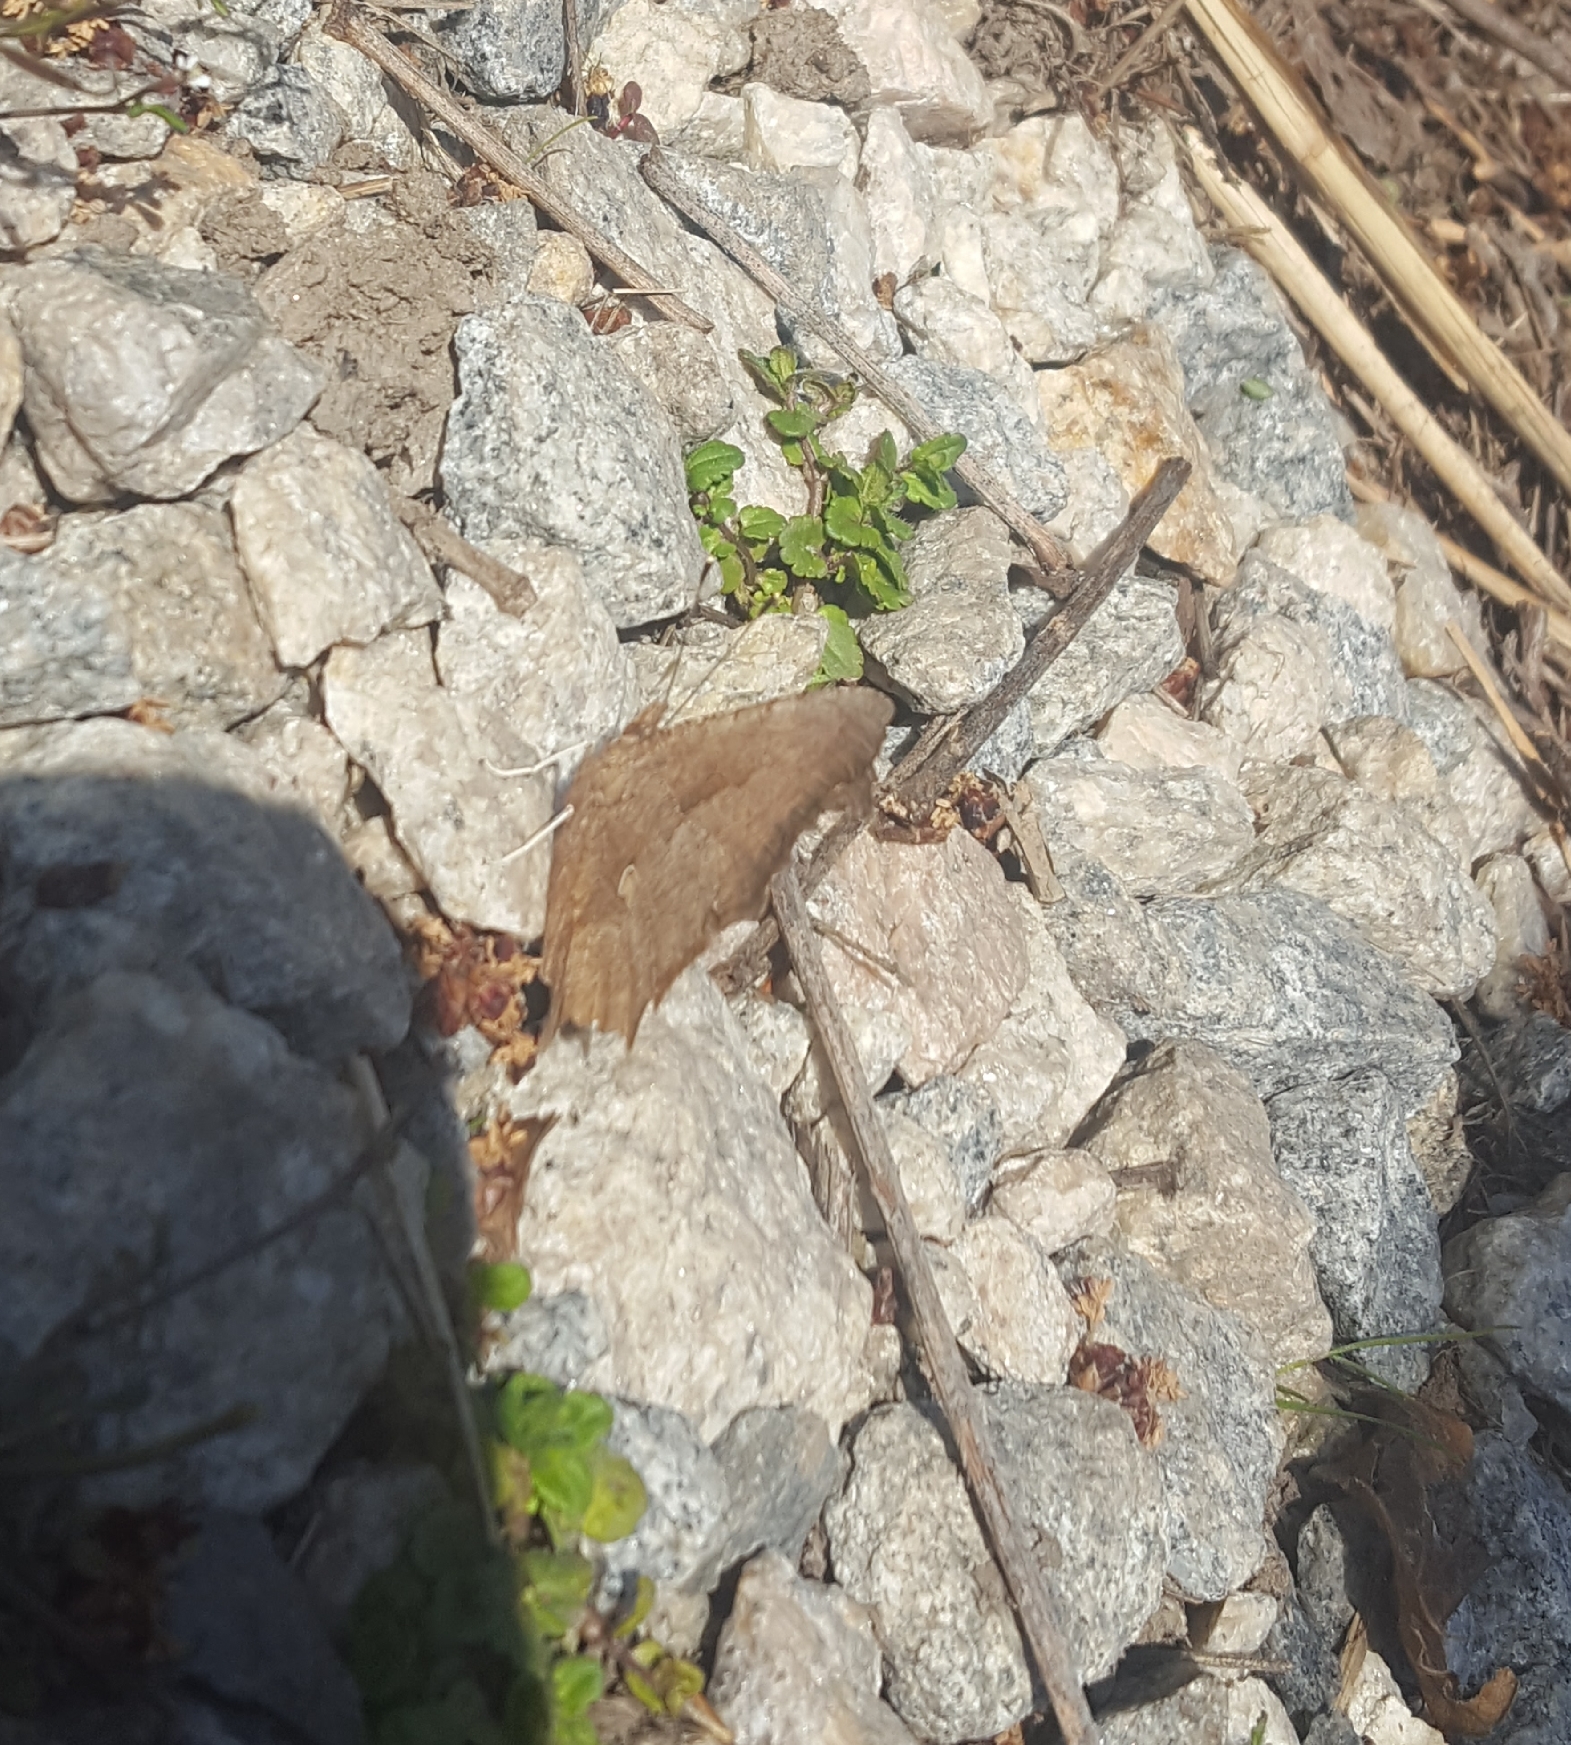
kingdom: Animalia
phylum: Arthropoda
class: Insecta
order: Lepidoptera
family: Nymphalidae
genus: Polygonia
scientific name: Polygonia comma
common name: Eastern comma
